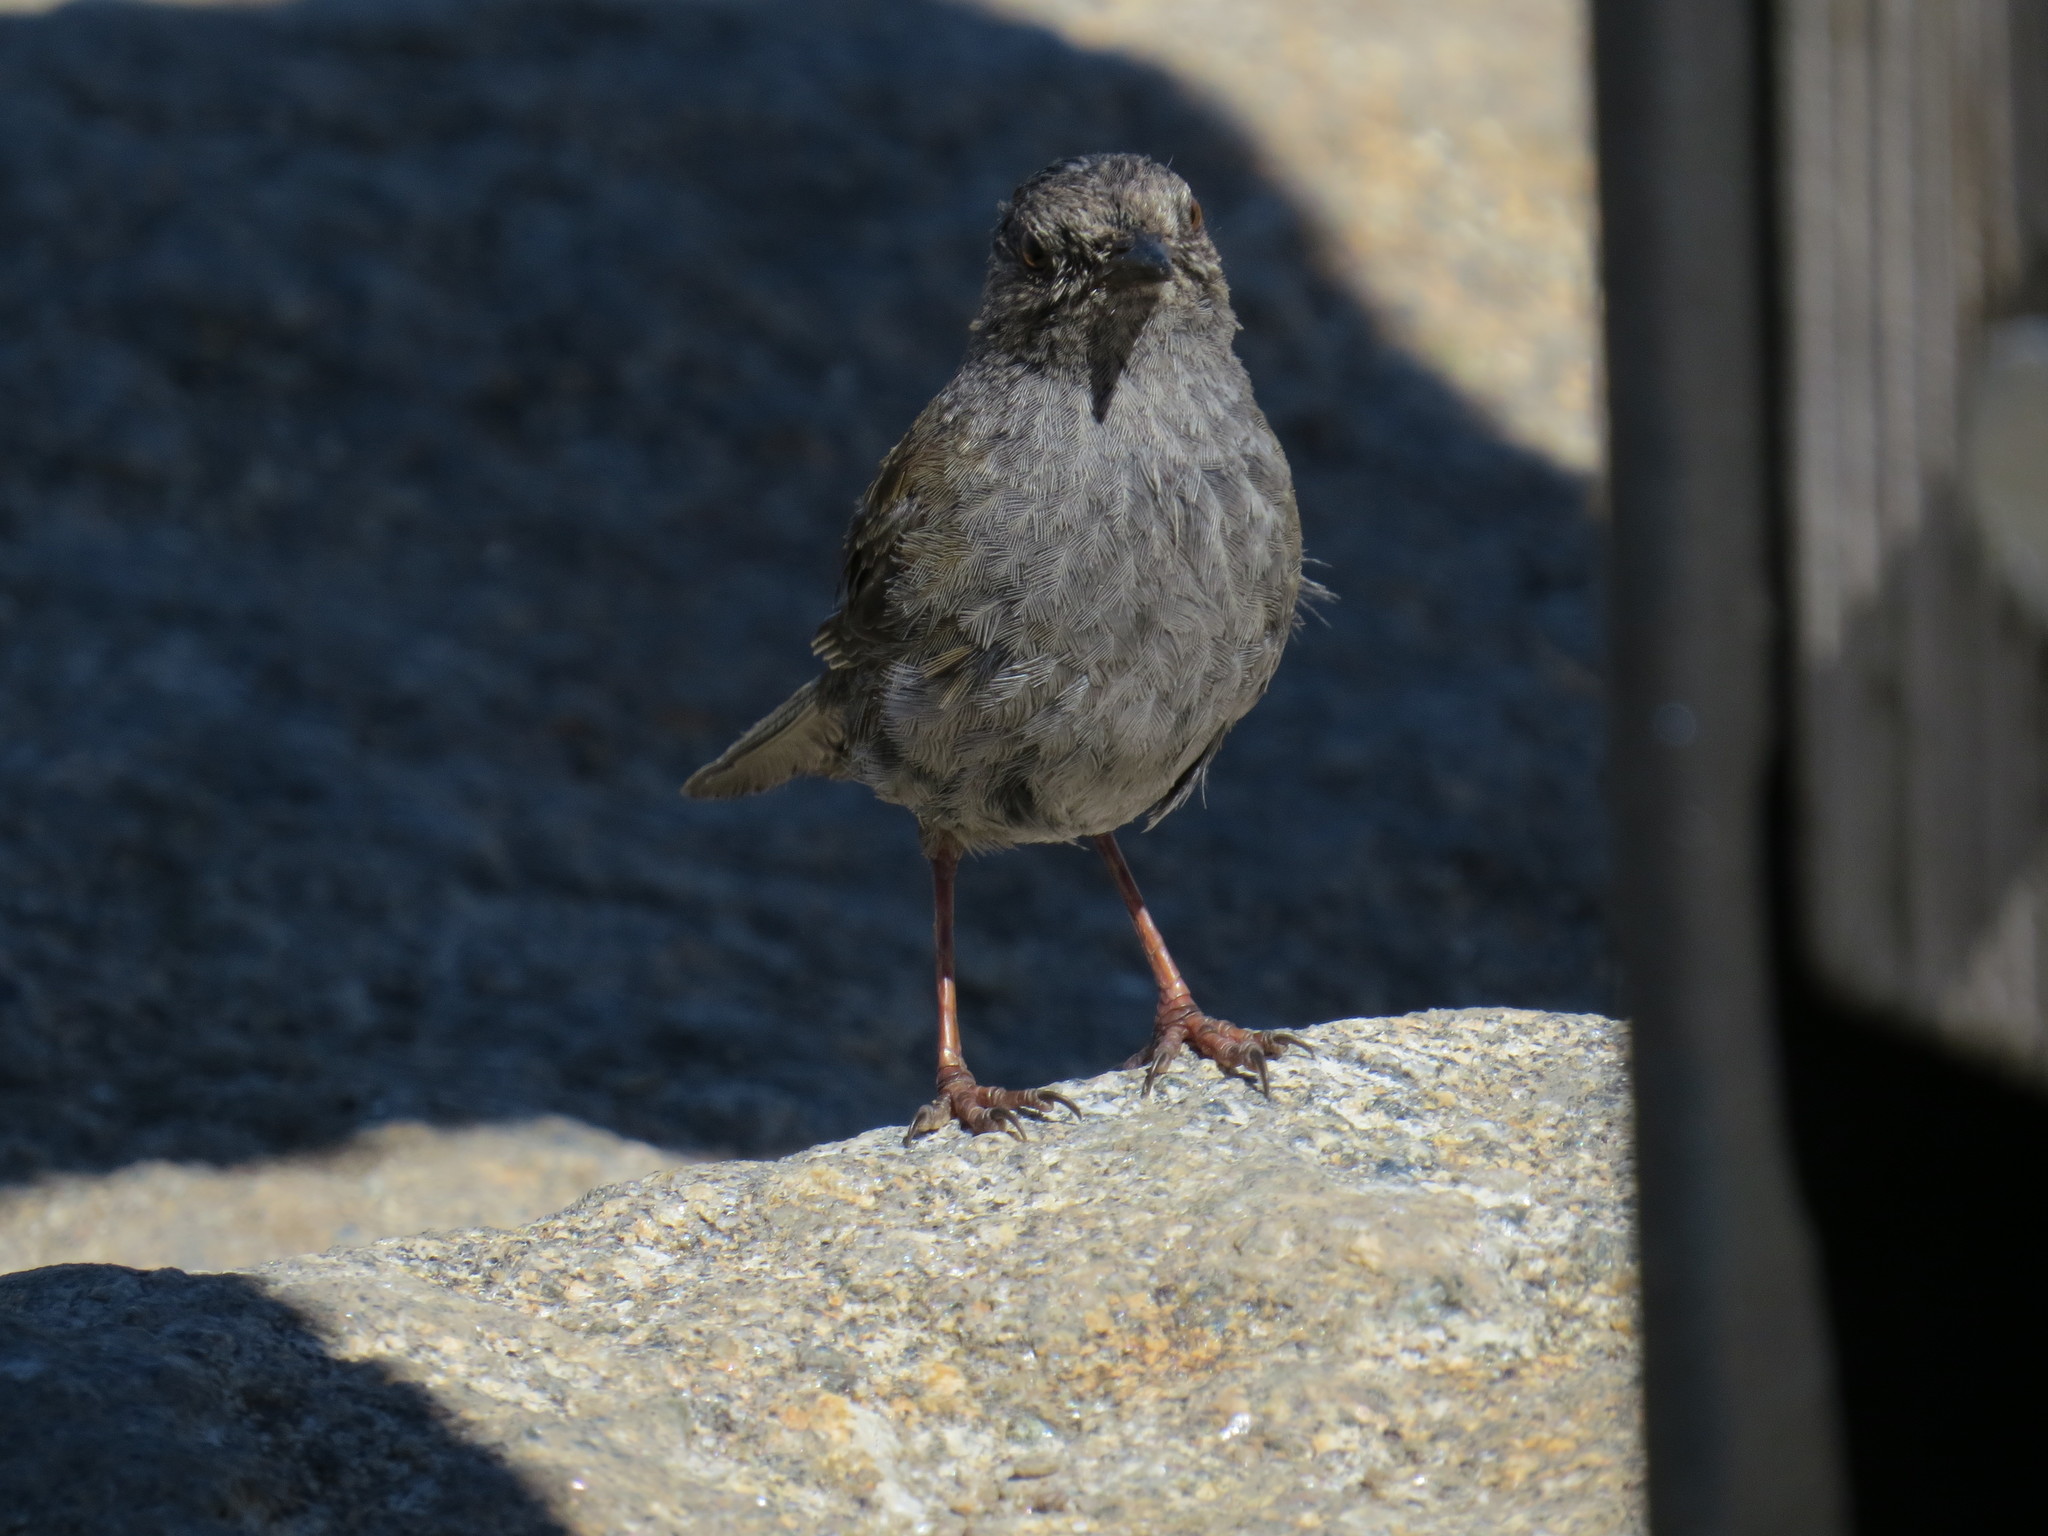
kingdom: Animalia
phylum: Chordata
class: Aves
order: Passeriformes
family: Prunellidae
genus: Prunella
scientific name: Prunella modularis
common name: Dunnock
